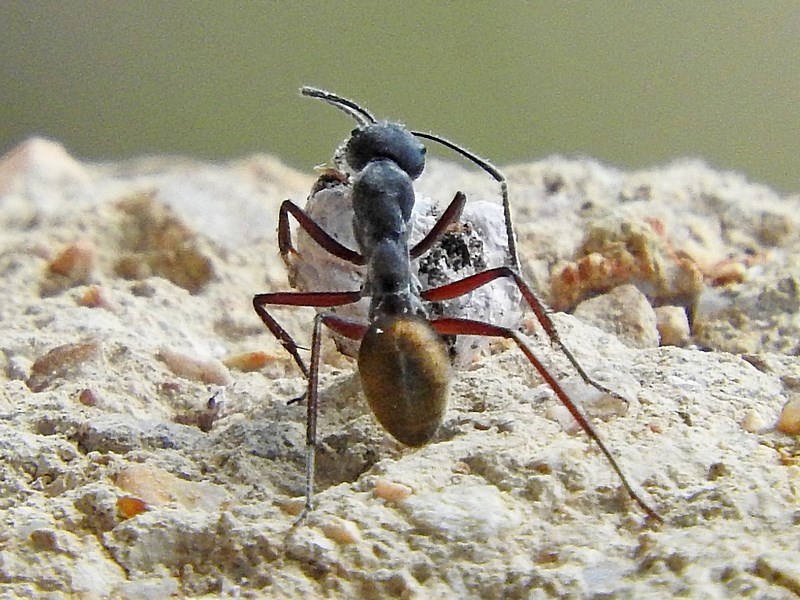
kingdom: Animalia
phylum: Arthropoda
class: Insecta
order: Hymenoptera
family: Formicidae
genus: Camponotus
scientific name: Camponotus suffusus
